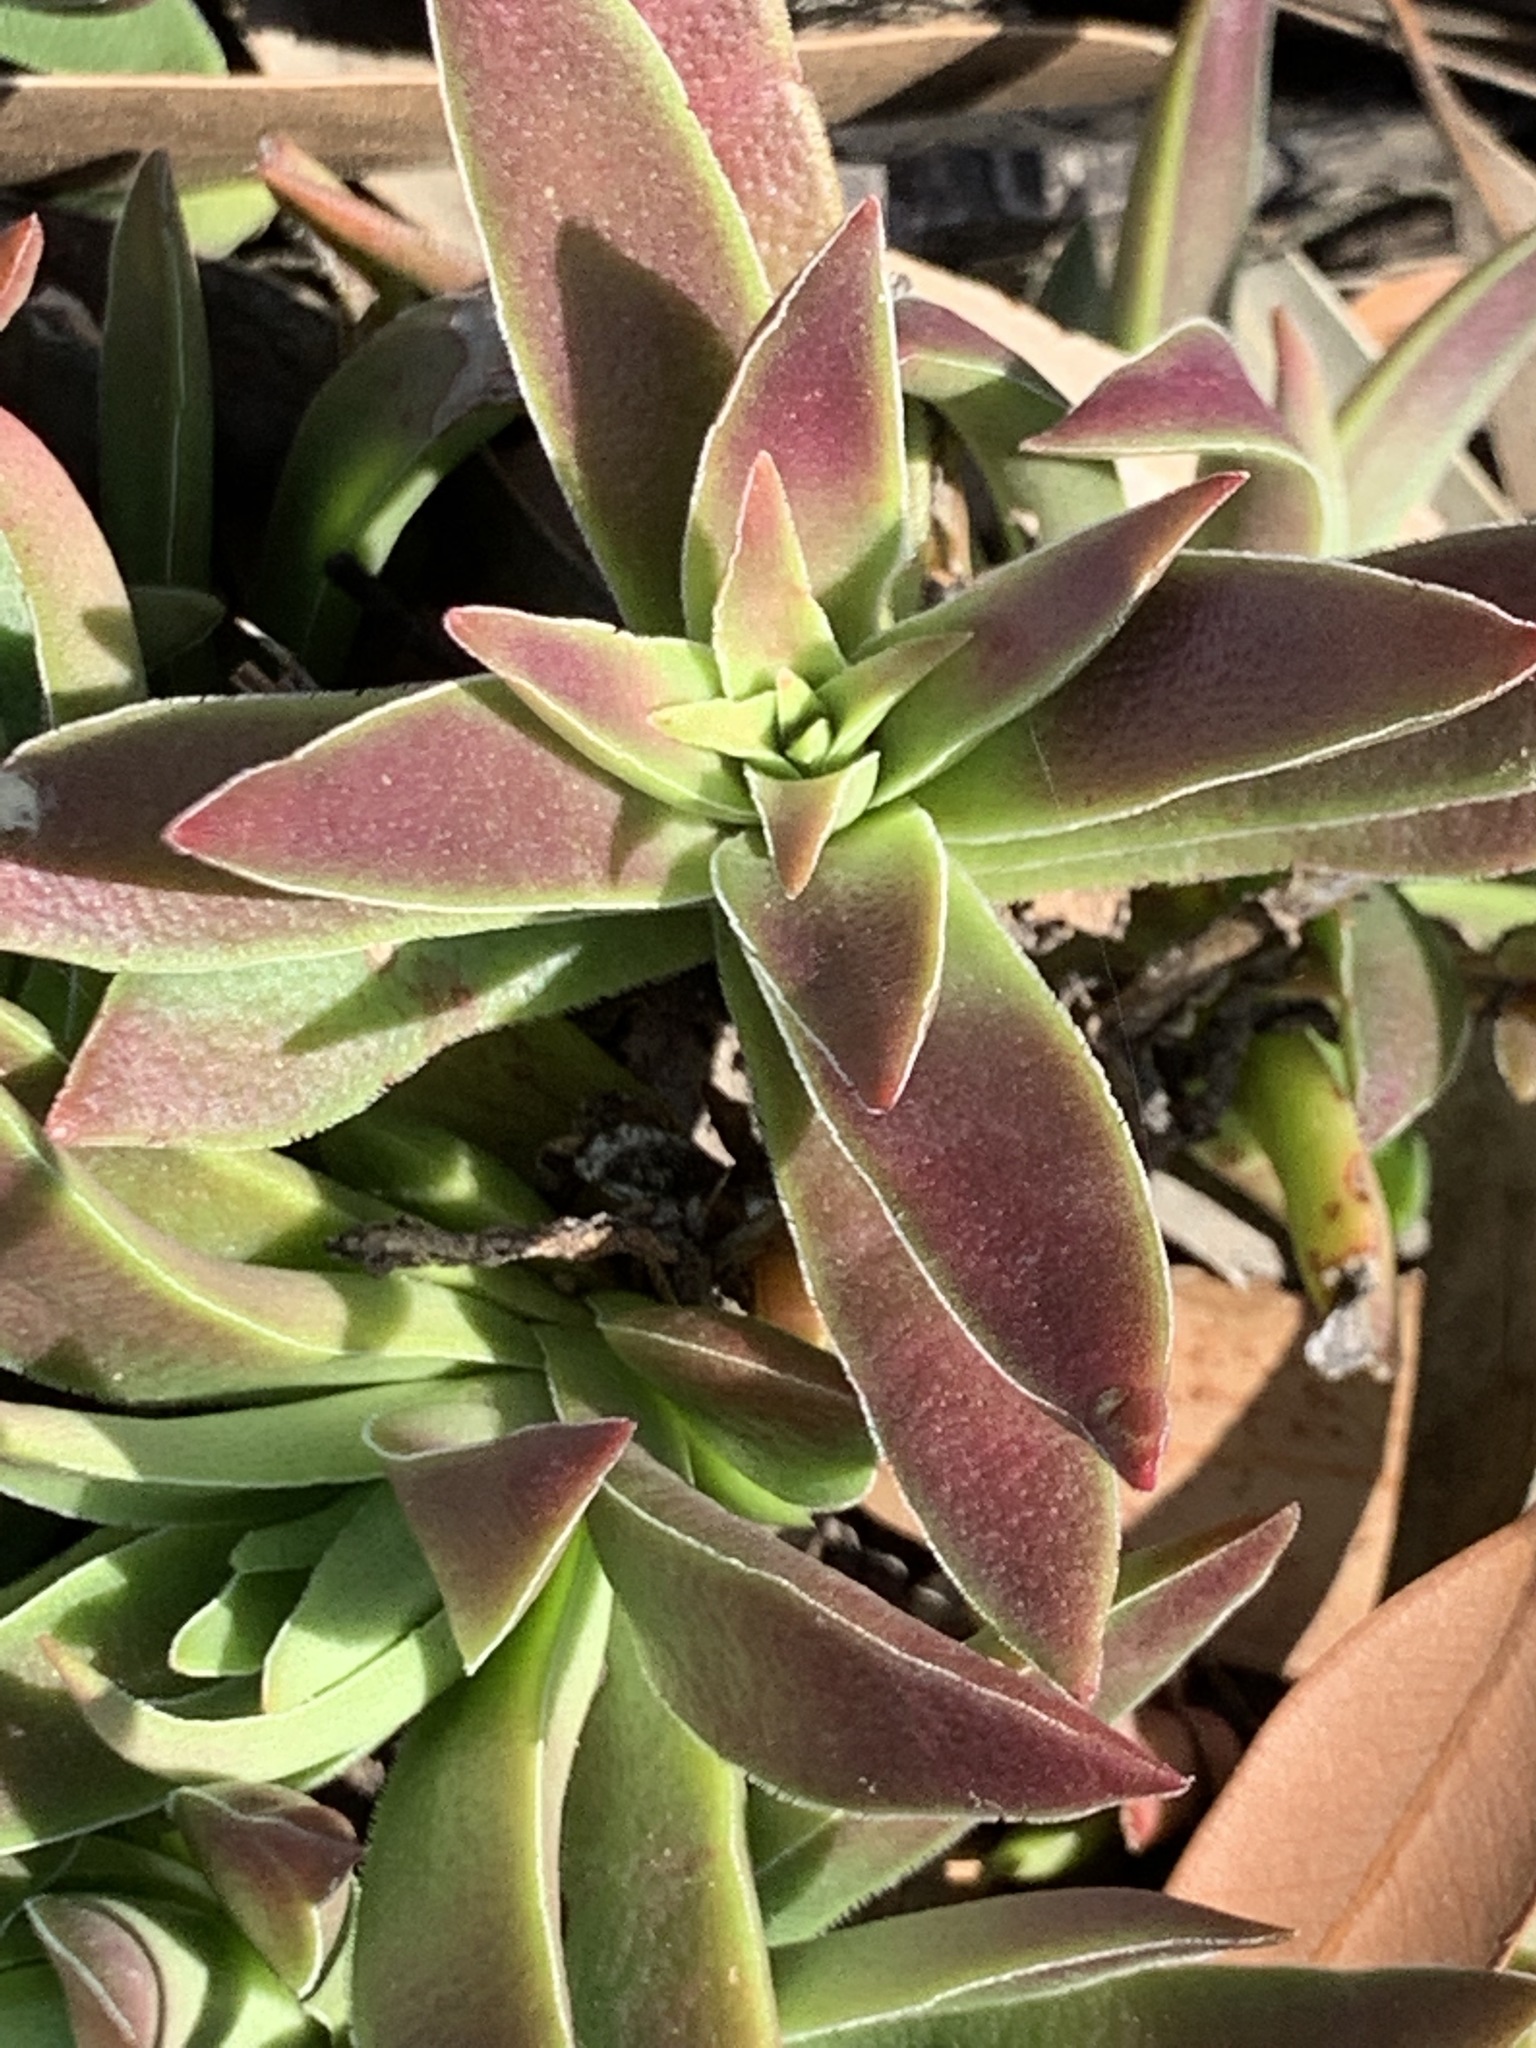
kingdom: Plantae
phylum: Tracheophyta
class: Magnoliopsida
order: Saxifragales
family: Crassulaceae
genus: Crassula
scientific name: Crassula capitella
